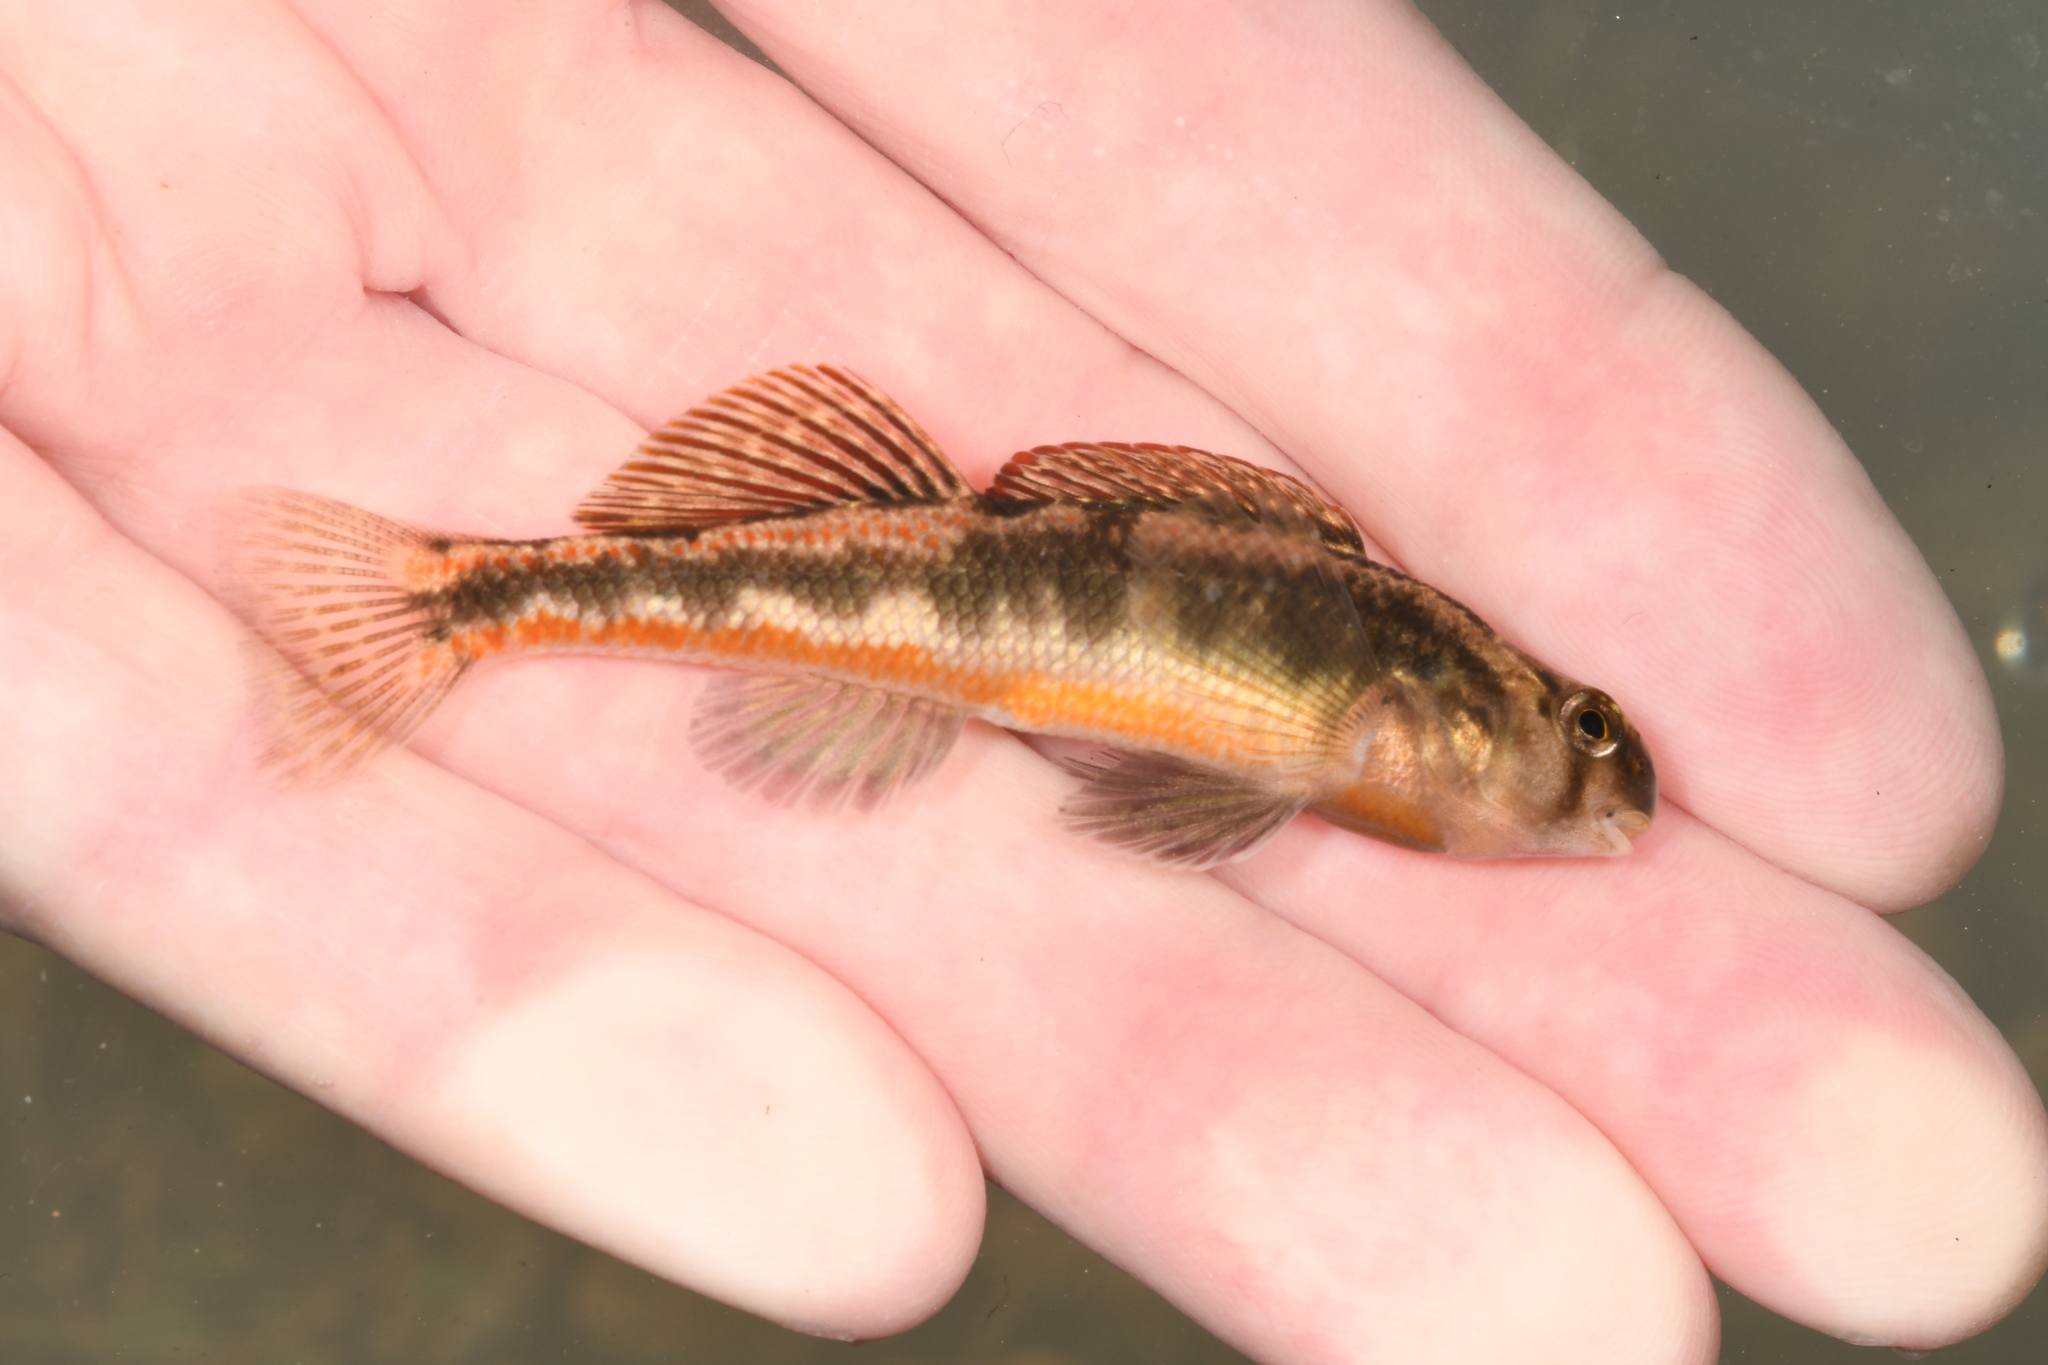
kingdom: Animalia
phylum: Chordata
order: Perciformes
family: Percidae
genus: Etheostoma
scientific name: Etheostoma simoterum
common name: Snubnose darter
